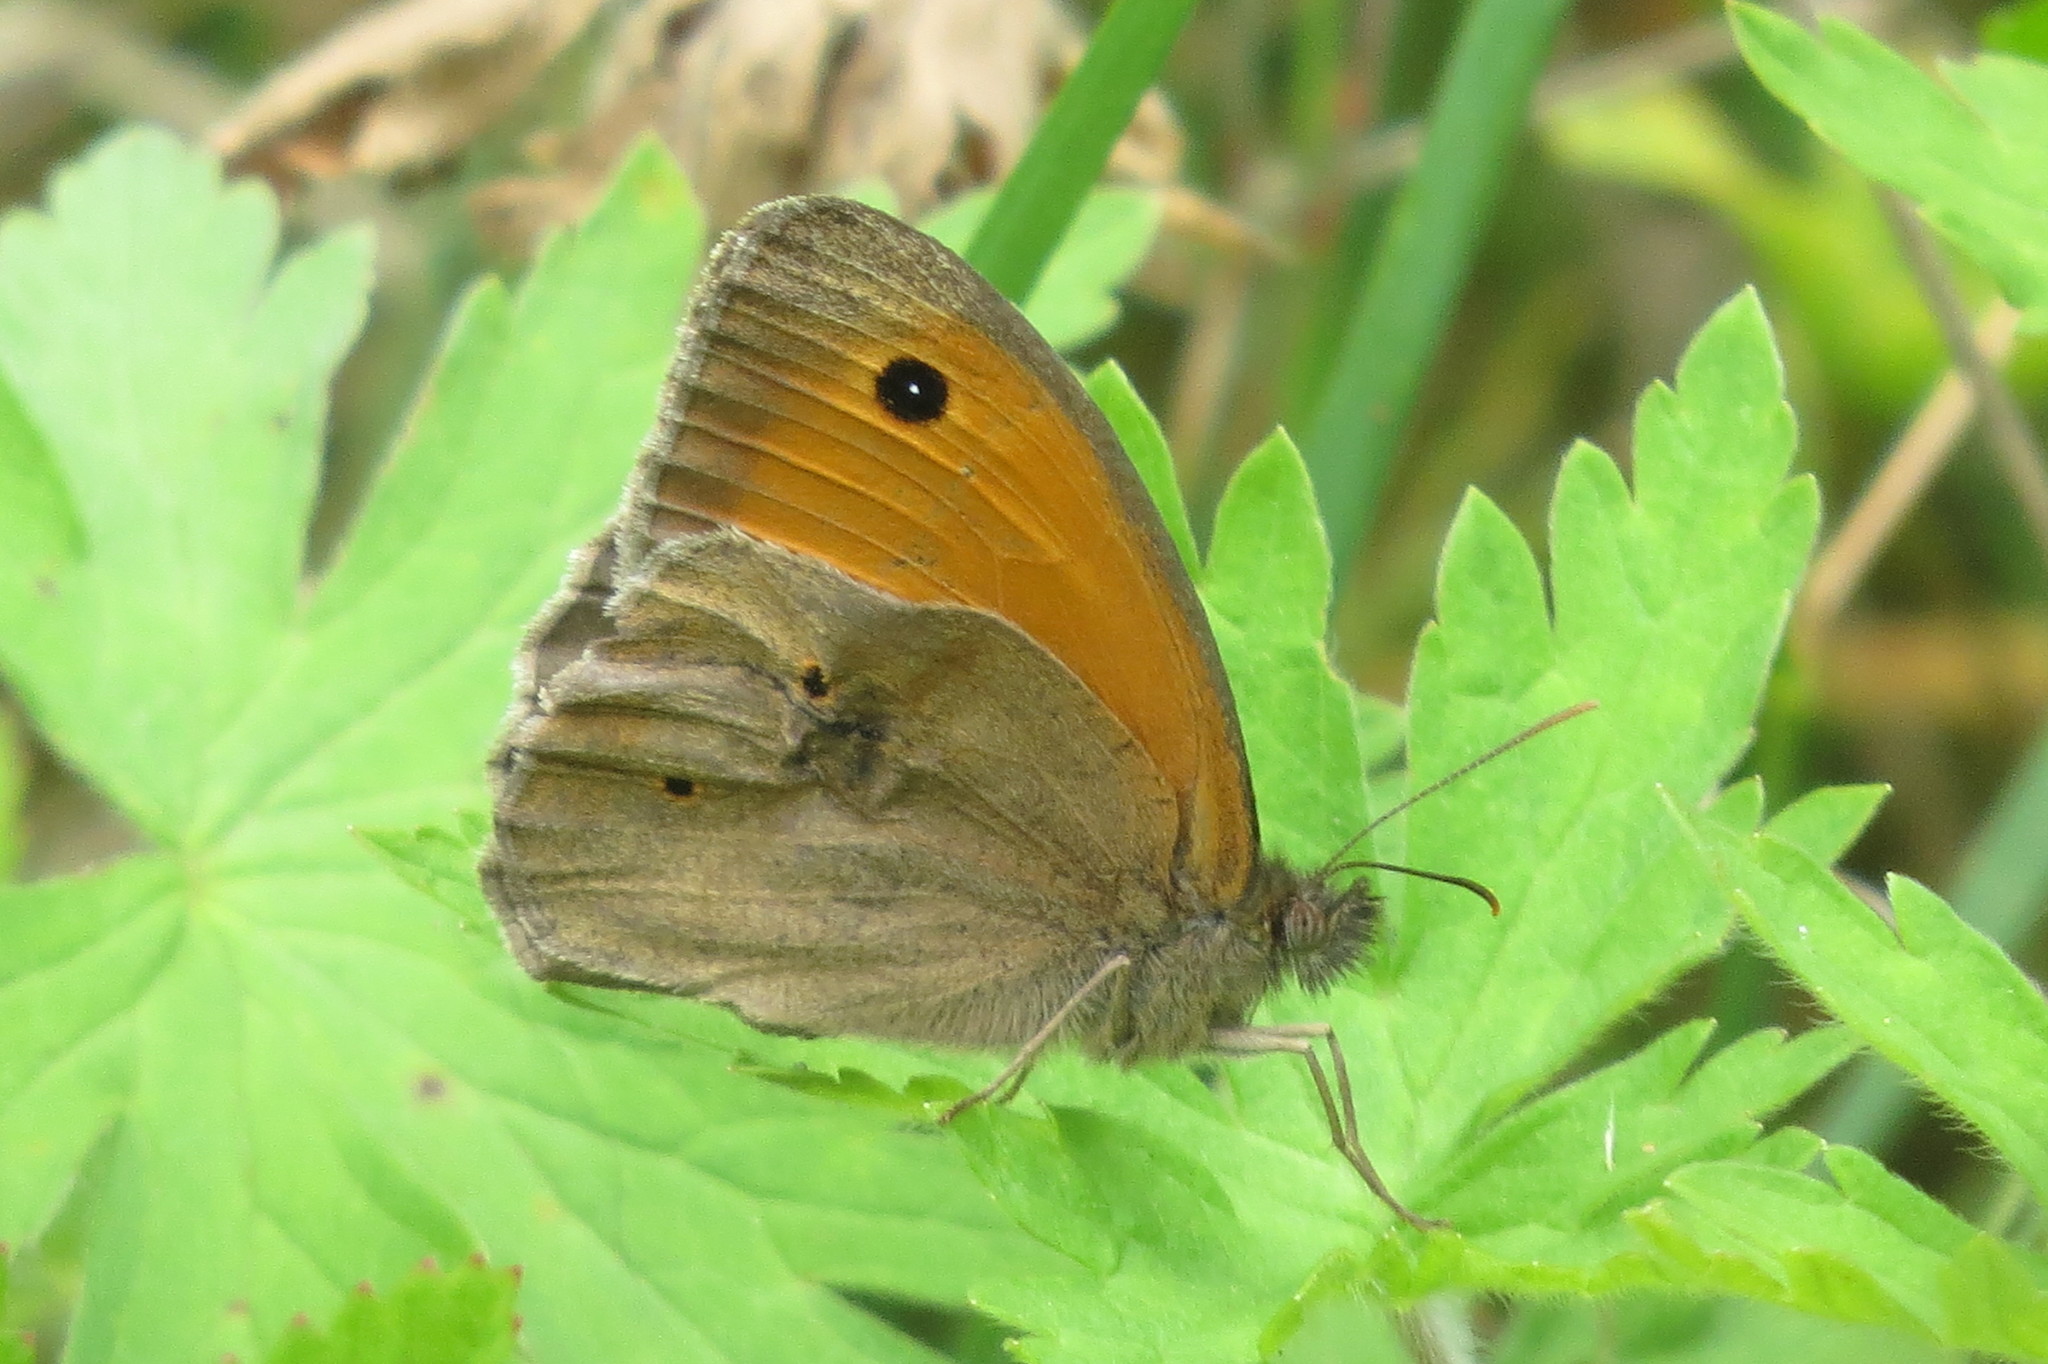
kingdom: Animalia
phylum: Arthropoda
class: Insecta
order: Lepidoptera
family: Nymphalidae
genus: Maniola
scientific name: Maniola jurtina
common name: Meadow brown
